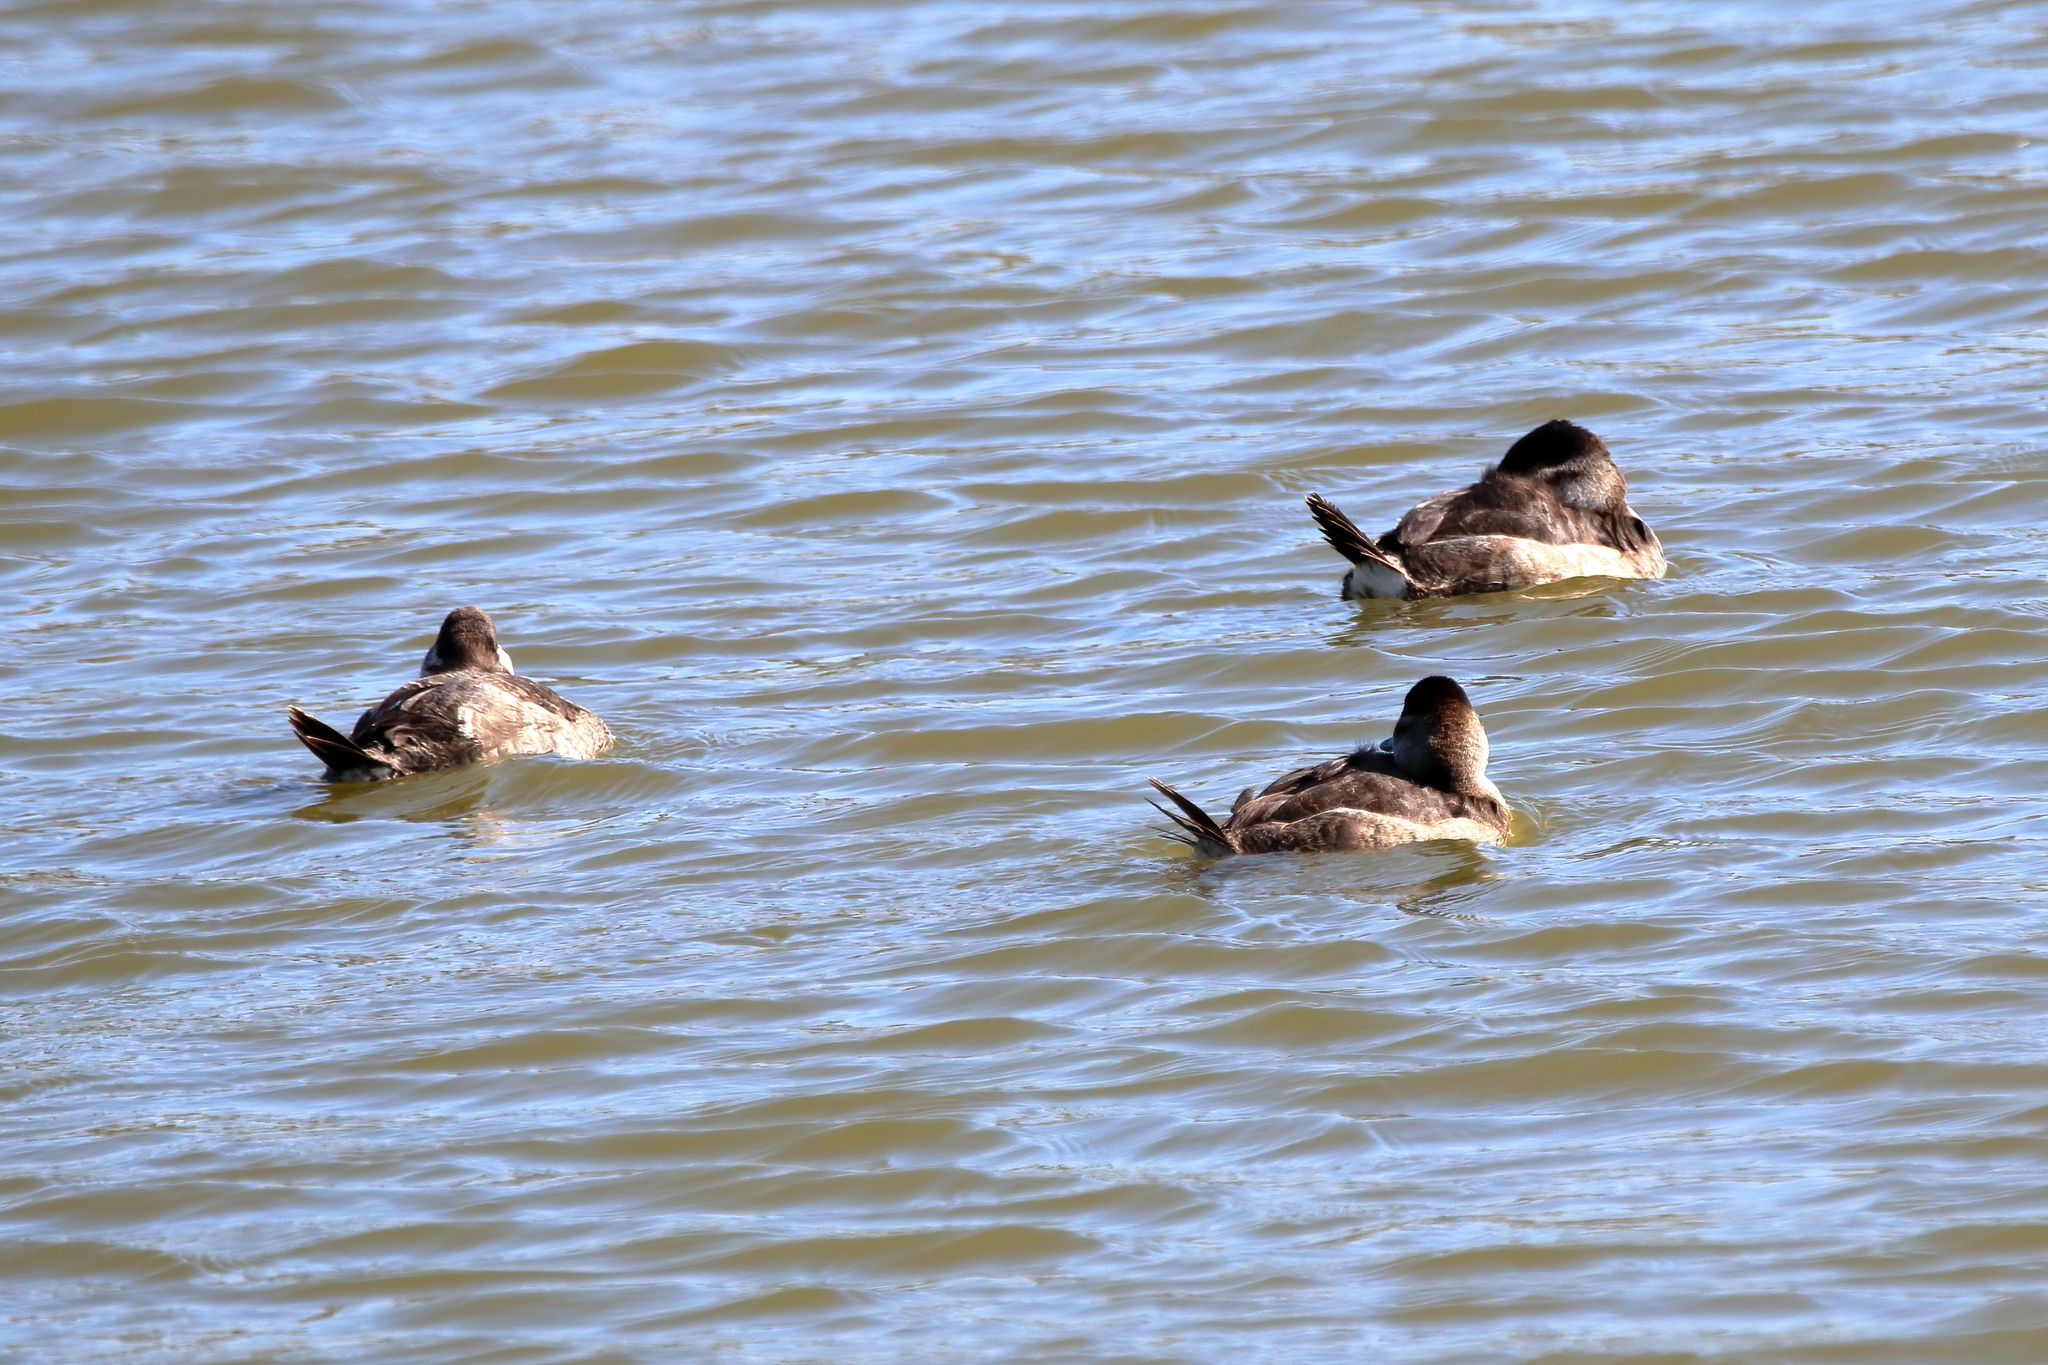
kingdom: Animalia
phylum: Chordata
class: Aves
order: Anseriformes
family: Anatidae
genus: Oxyura
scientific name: Oxyura jamaicensis
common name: Ruddy duck
